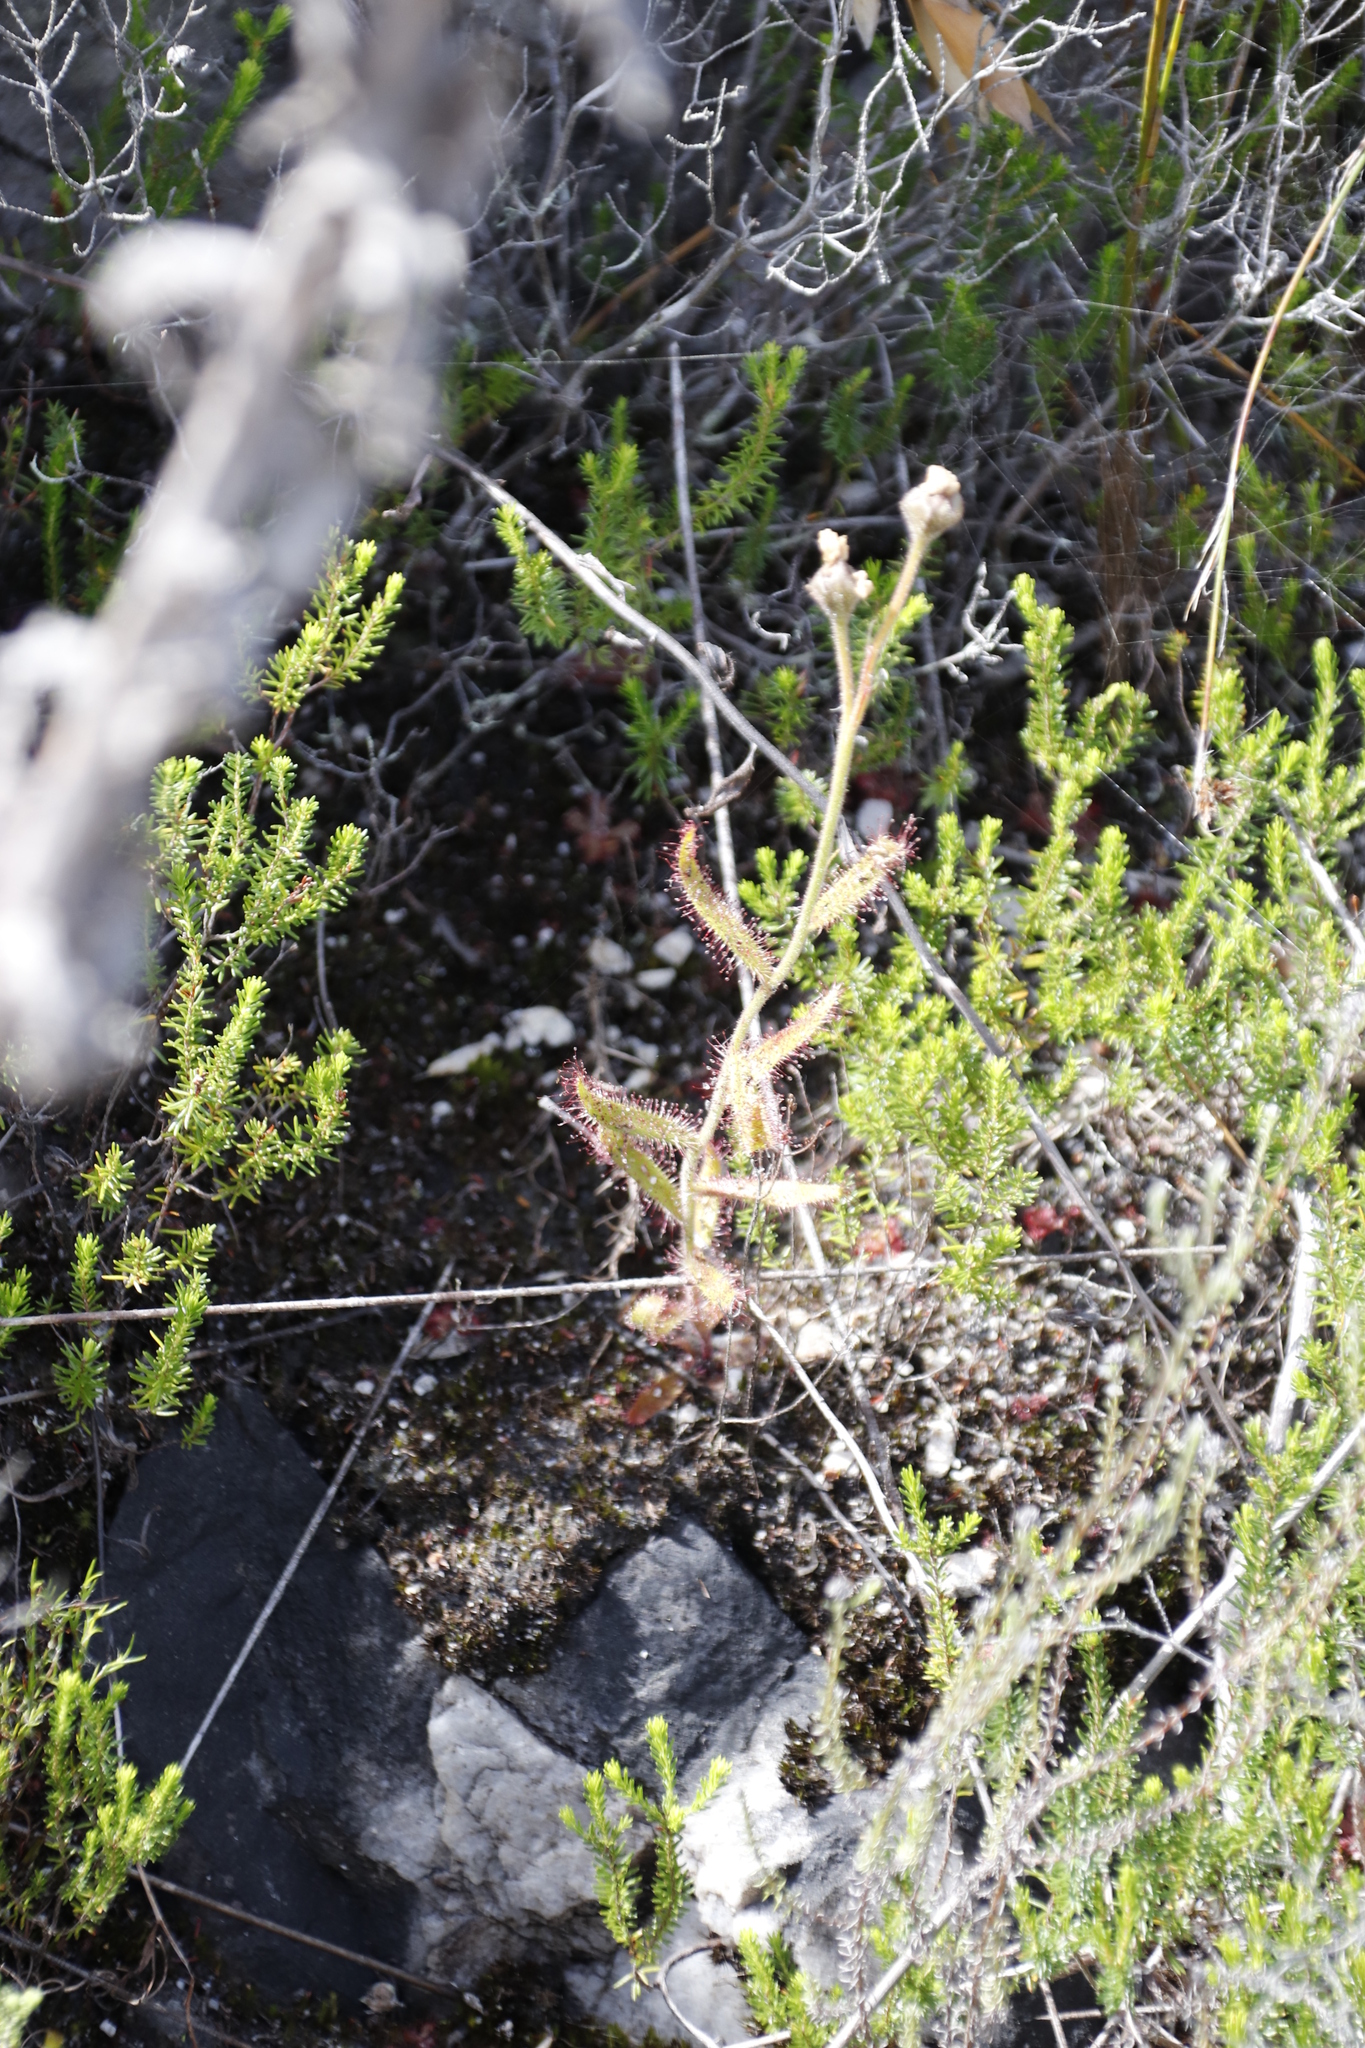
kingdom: Plantae
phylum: Tracheophyta
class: Magnoliopsida
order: Caryophyllales
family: Droseraceae
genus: Drosera
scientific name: Drosera cistiflora
